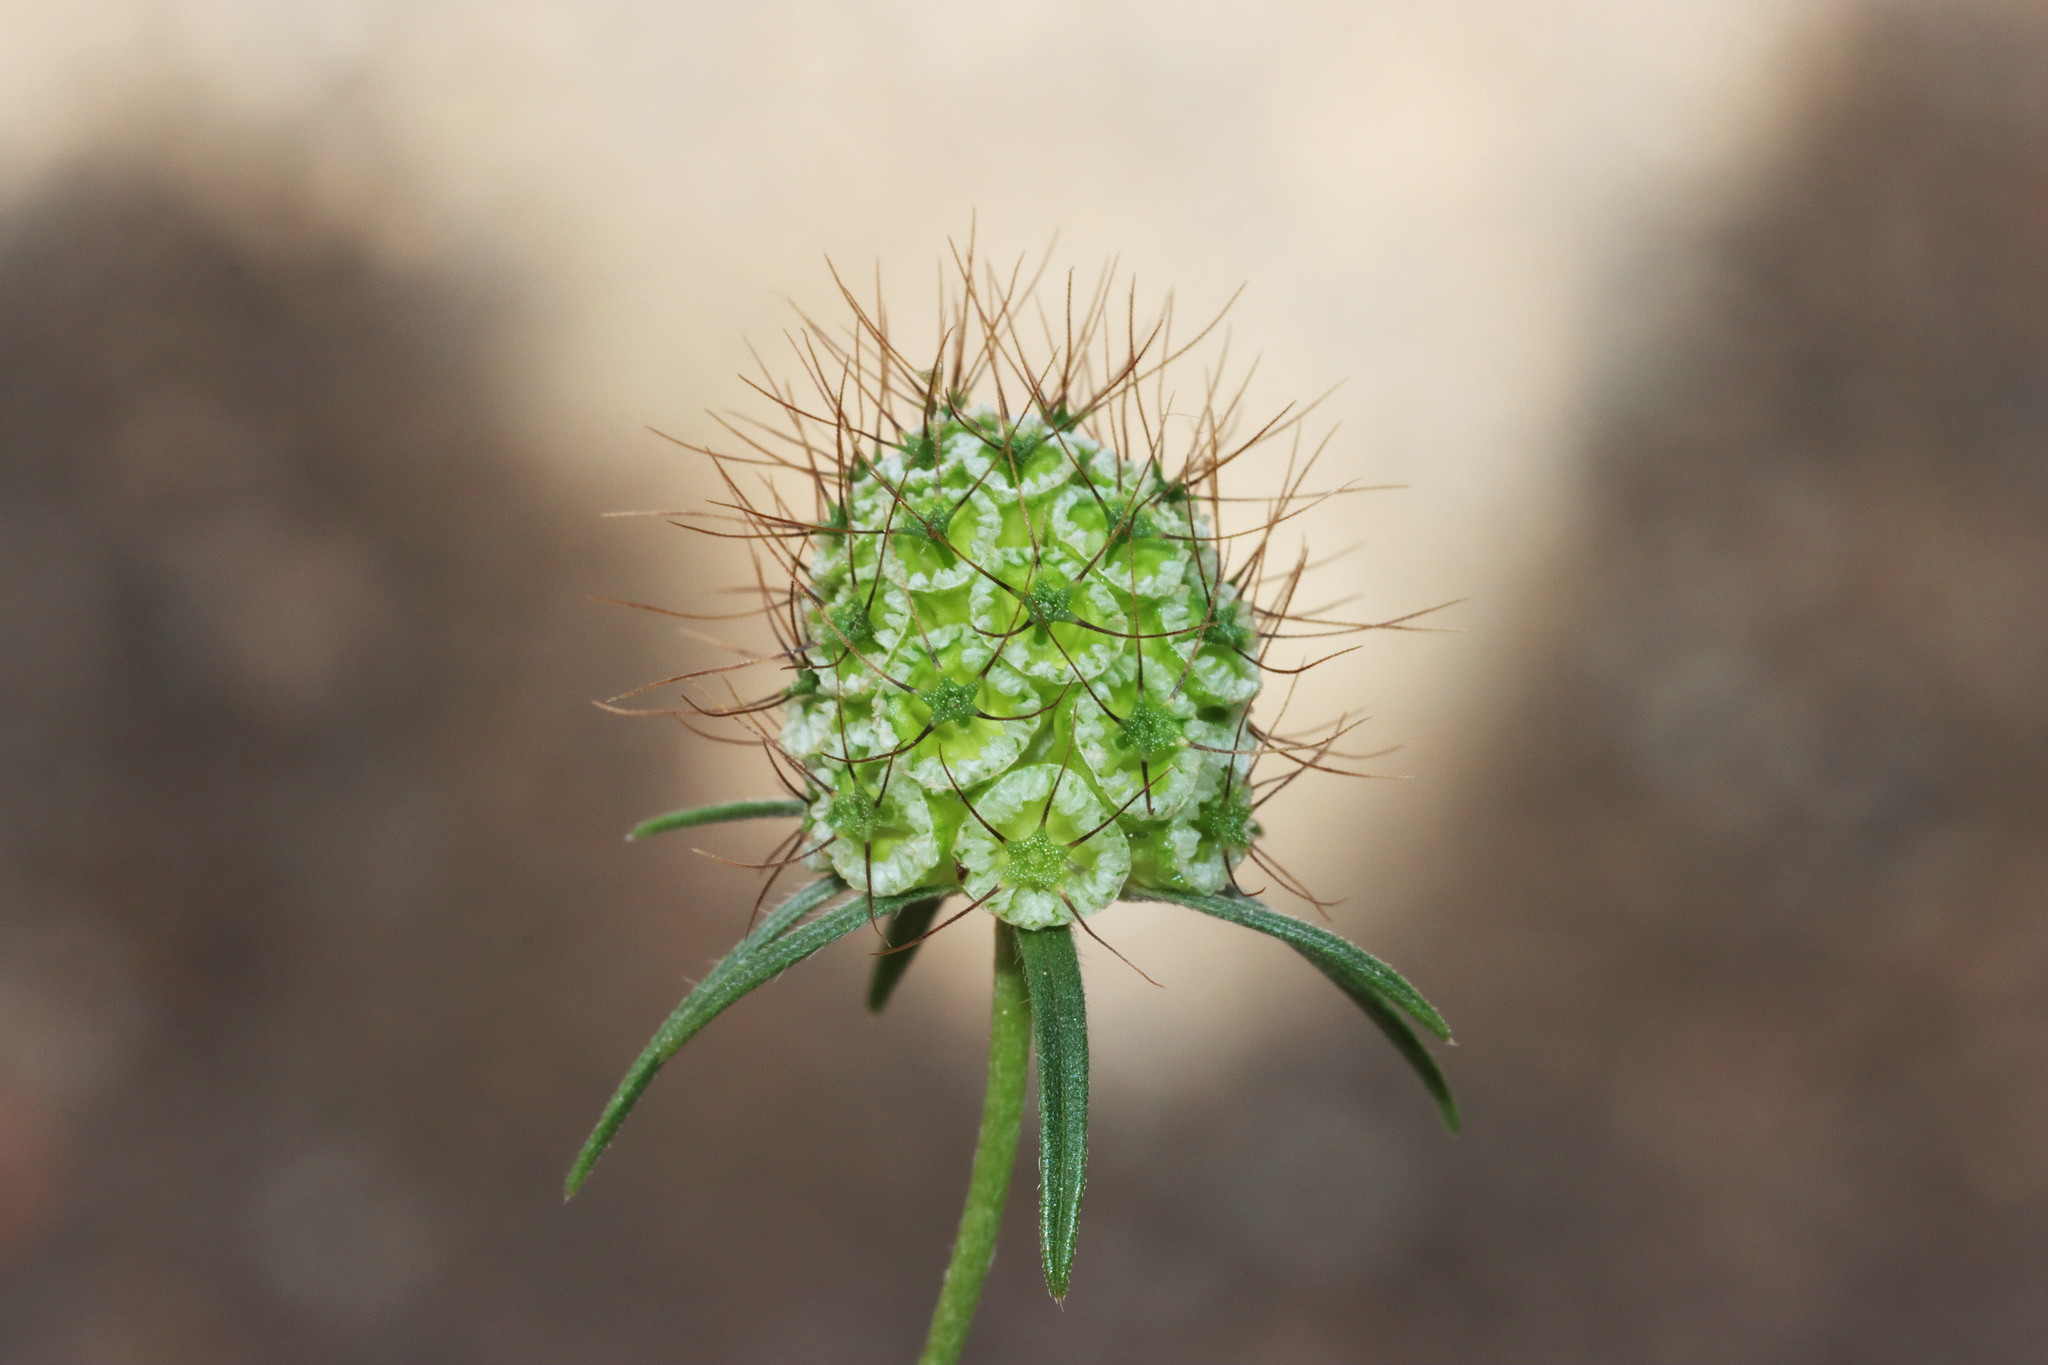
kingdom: Plantae
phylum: Tracheophyta
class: Magnoliopsida
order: Dipsacales
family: Caprifoliaceae
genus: Sixalix
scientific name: Sixalix atropurpurea
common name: Sweet scabious
